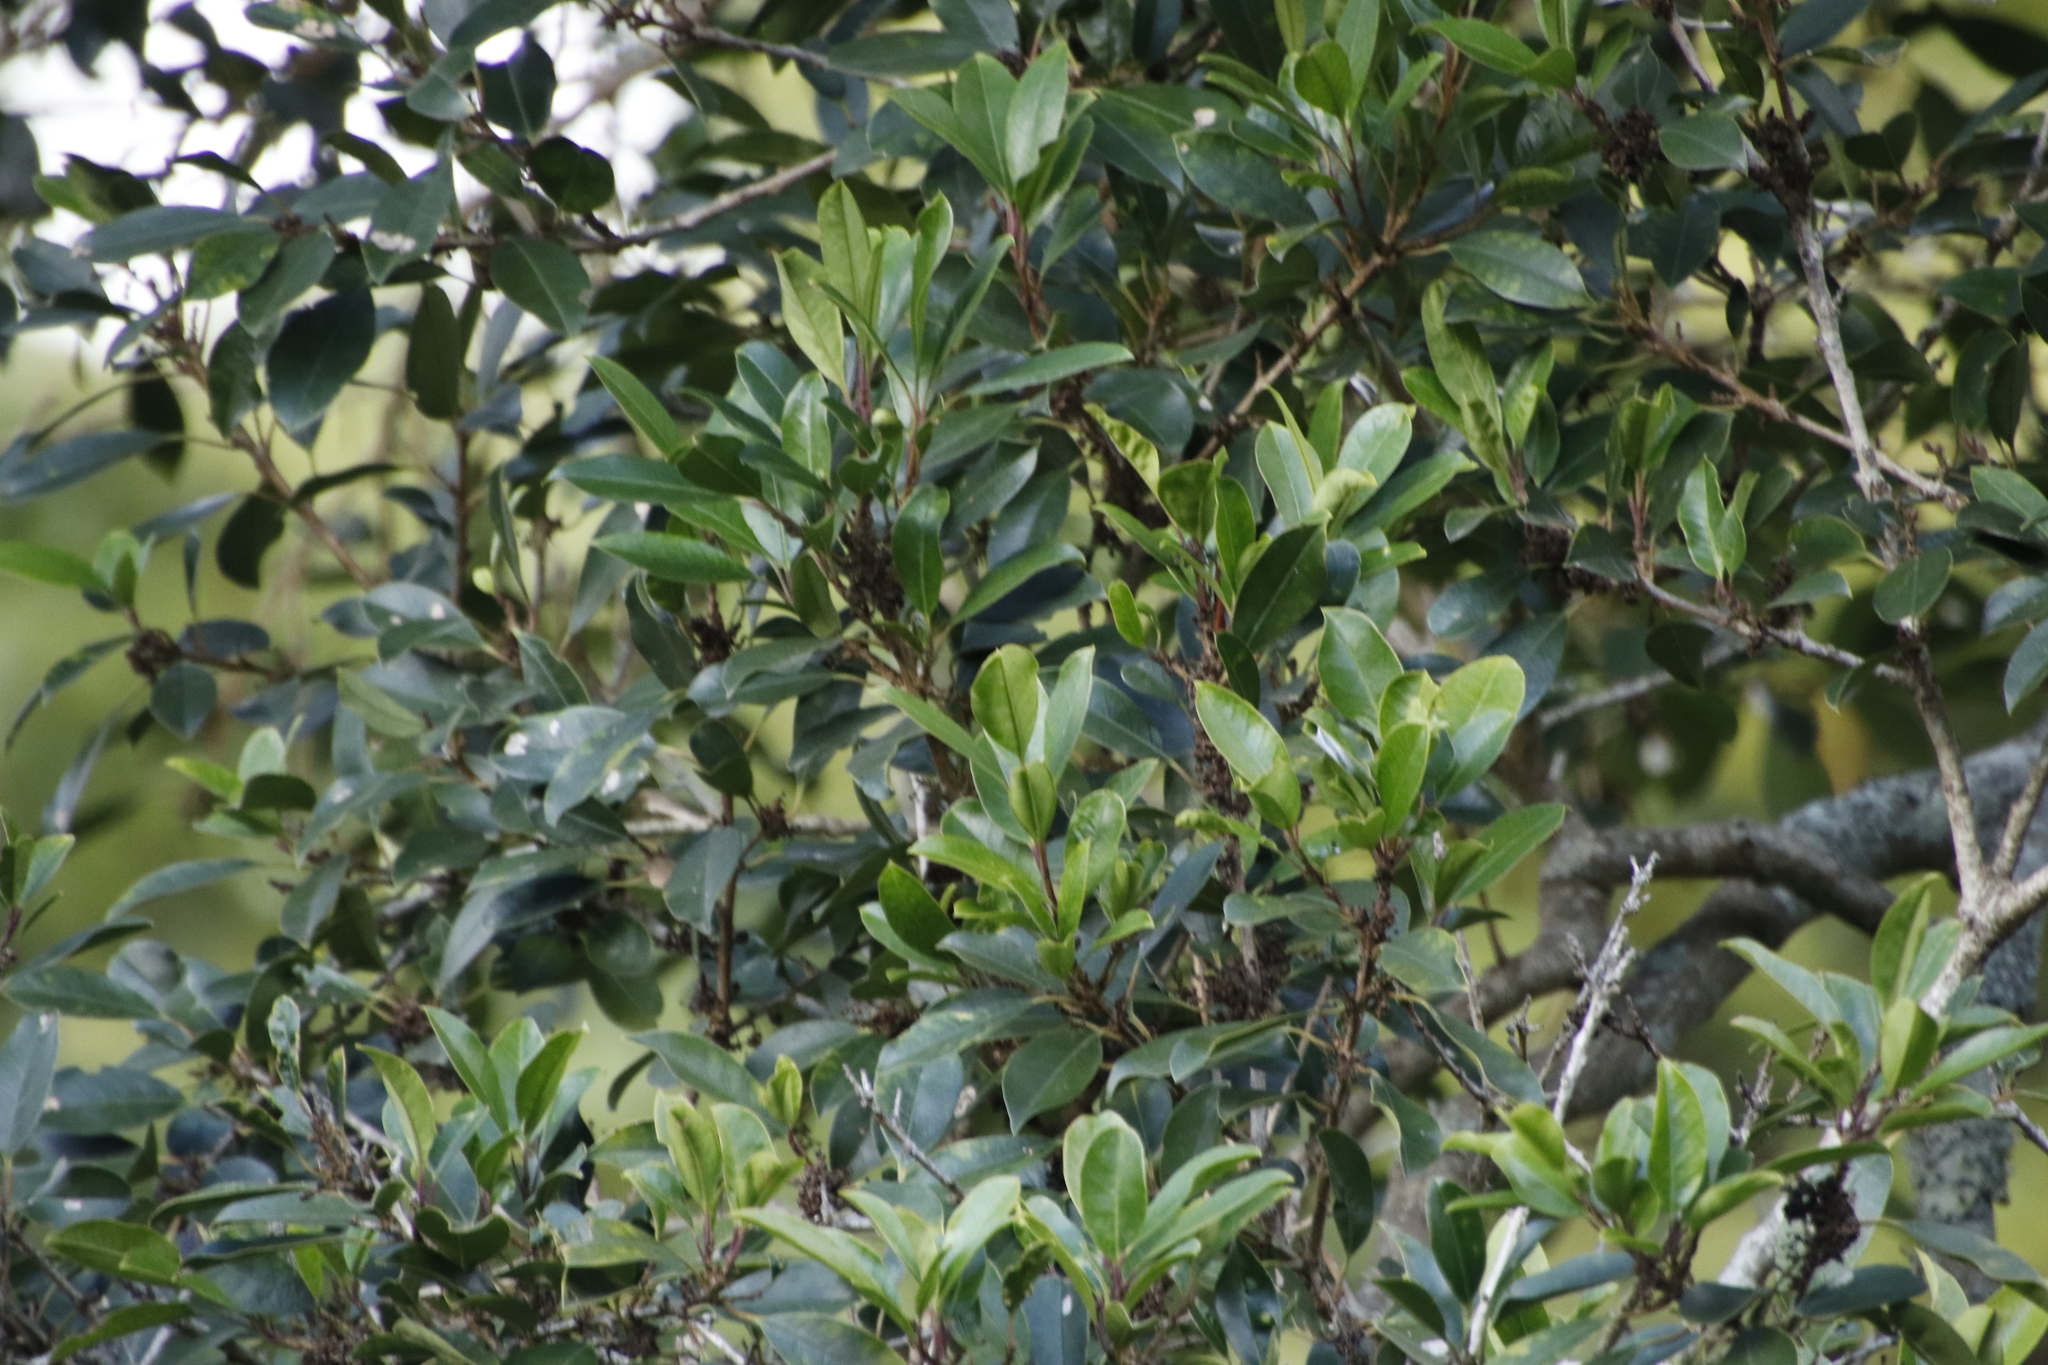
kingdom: Plantae
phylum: Tracheophyta
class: Magnoliopsida
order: Aquifoliales
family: Aquifoliaceae
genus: Ilex
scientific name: Ilex mitis
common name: African holly
